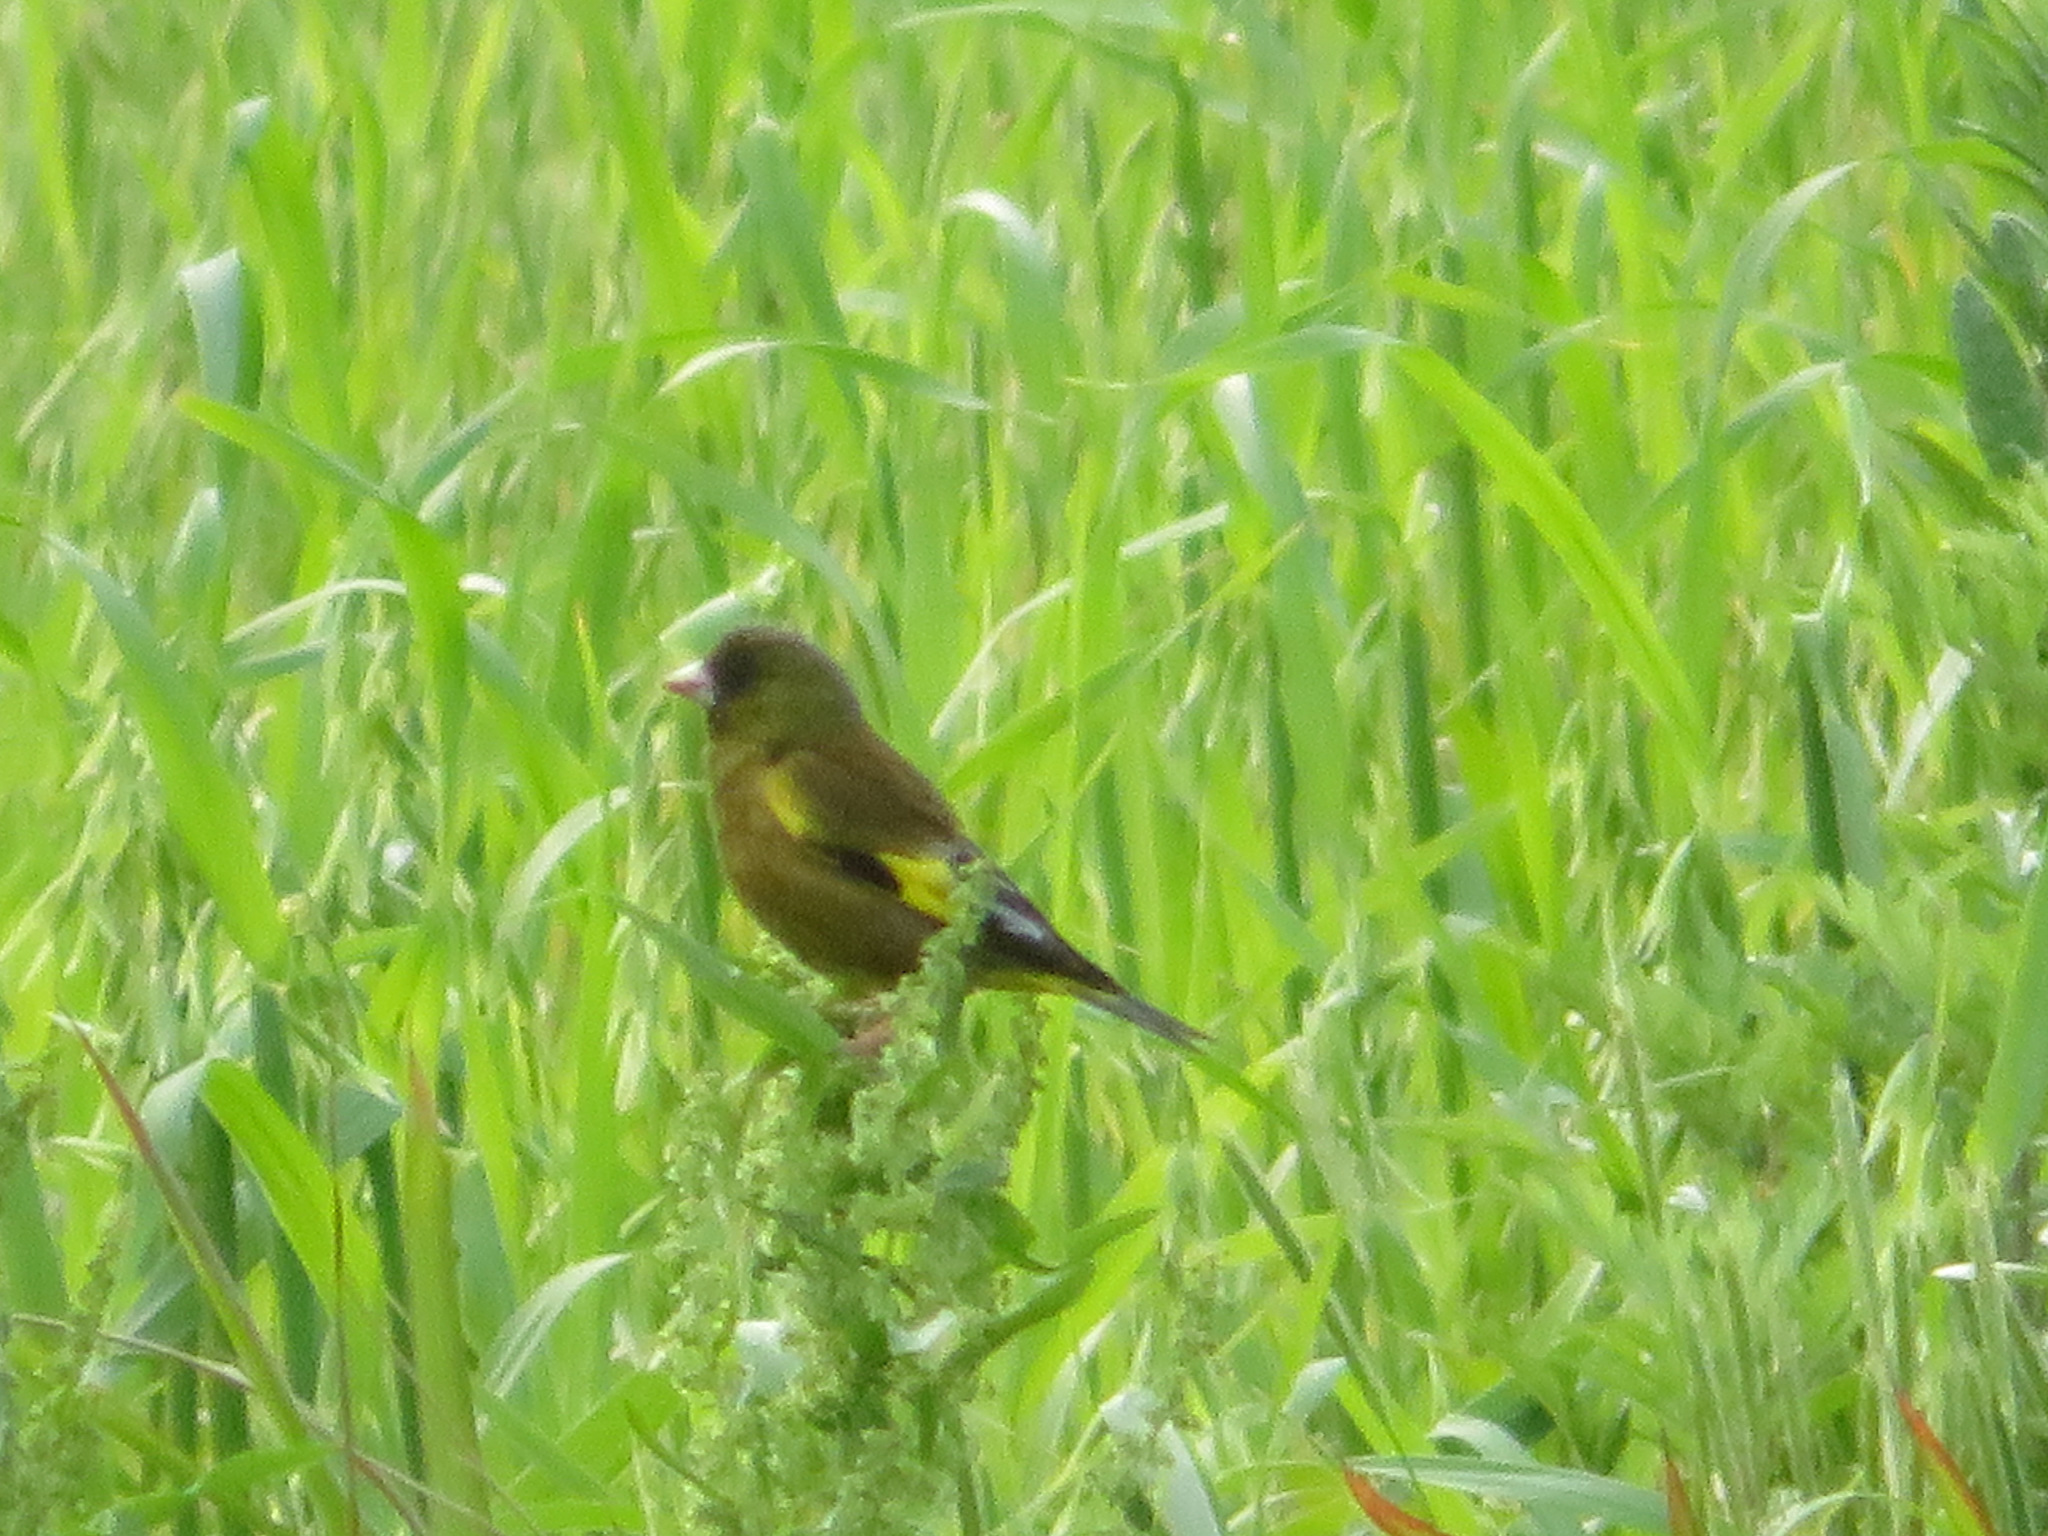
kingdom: Plantae
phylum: Tracheophyta
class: Liliopsida
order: Poales
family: Poaceae
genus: Chloris
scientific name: Chloris sinica
